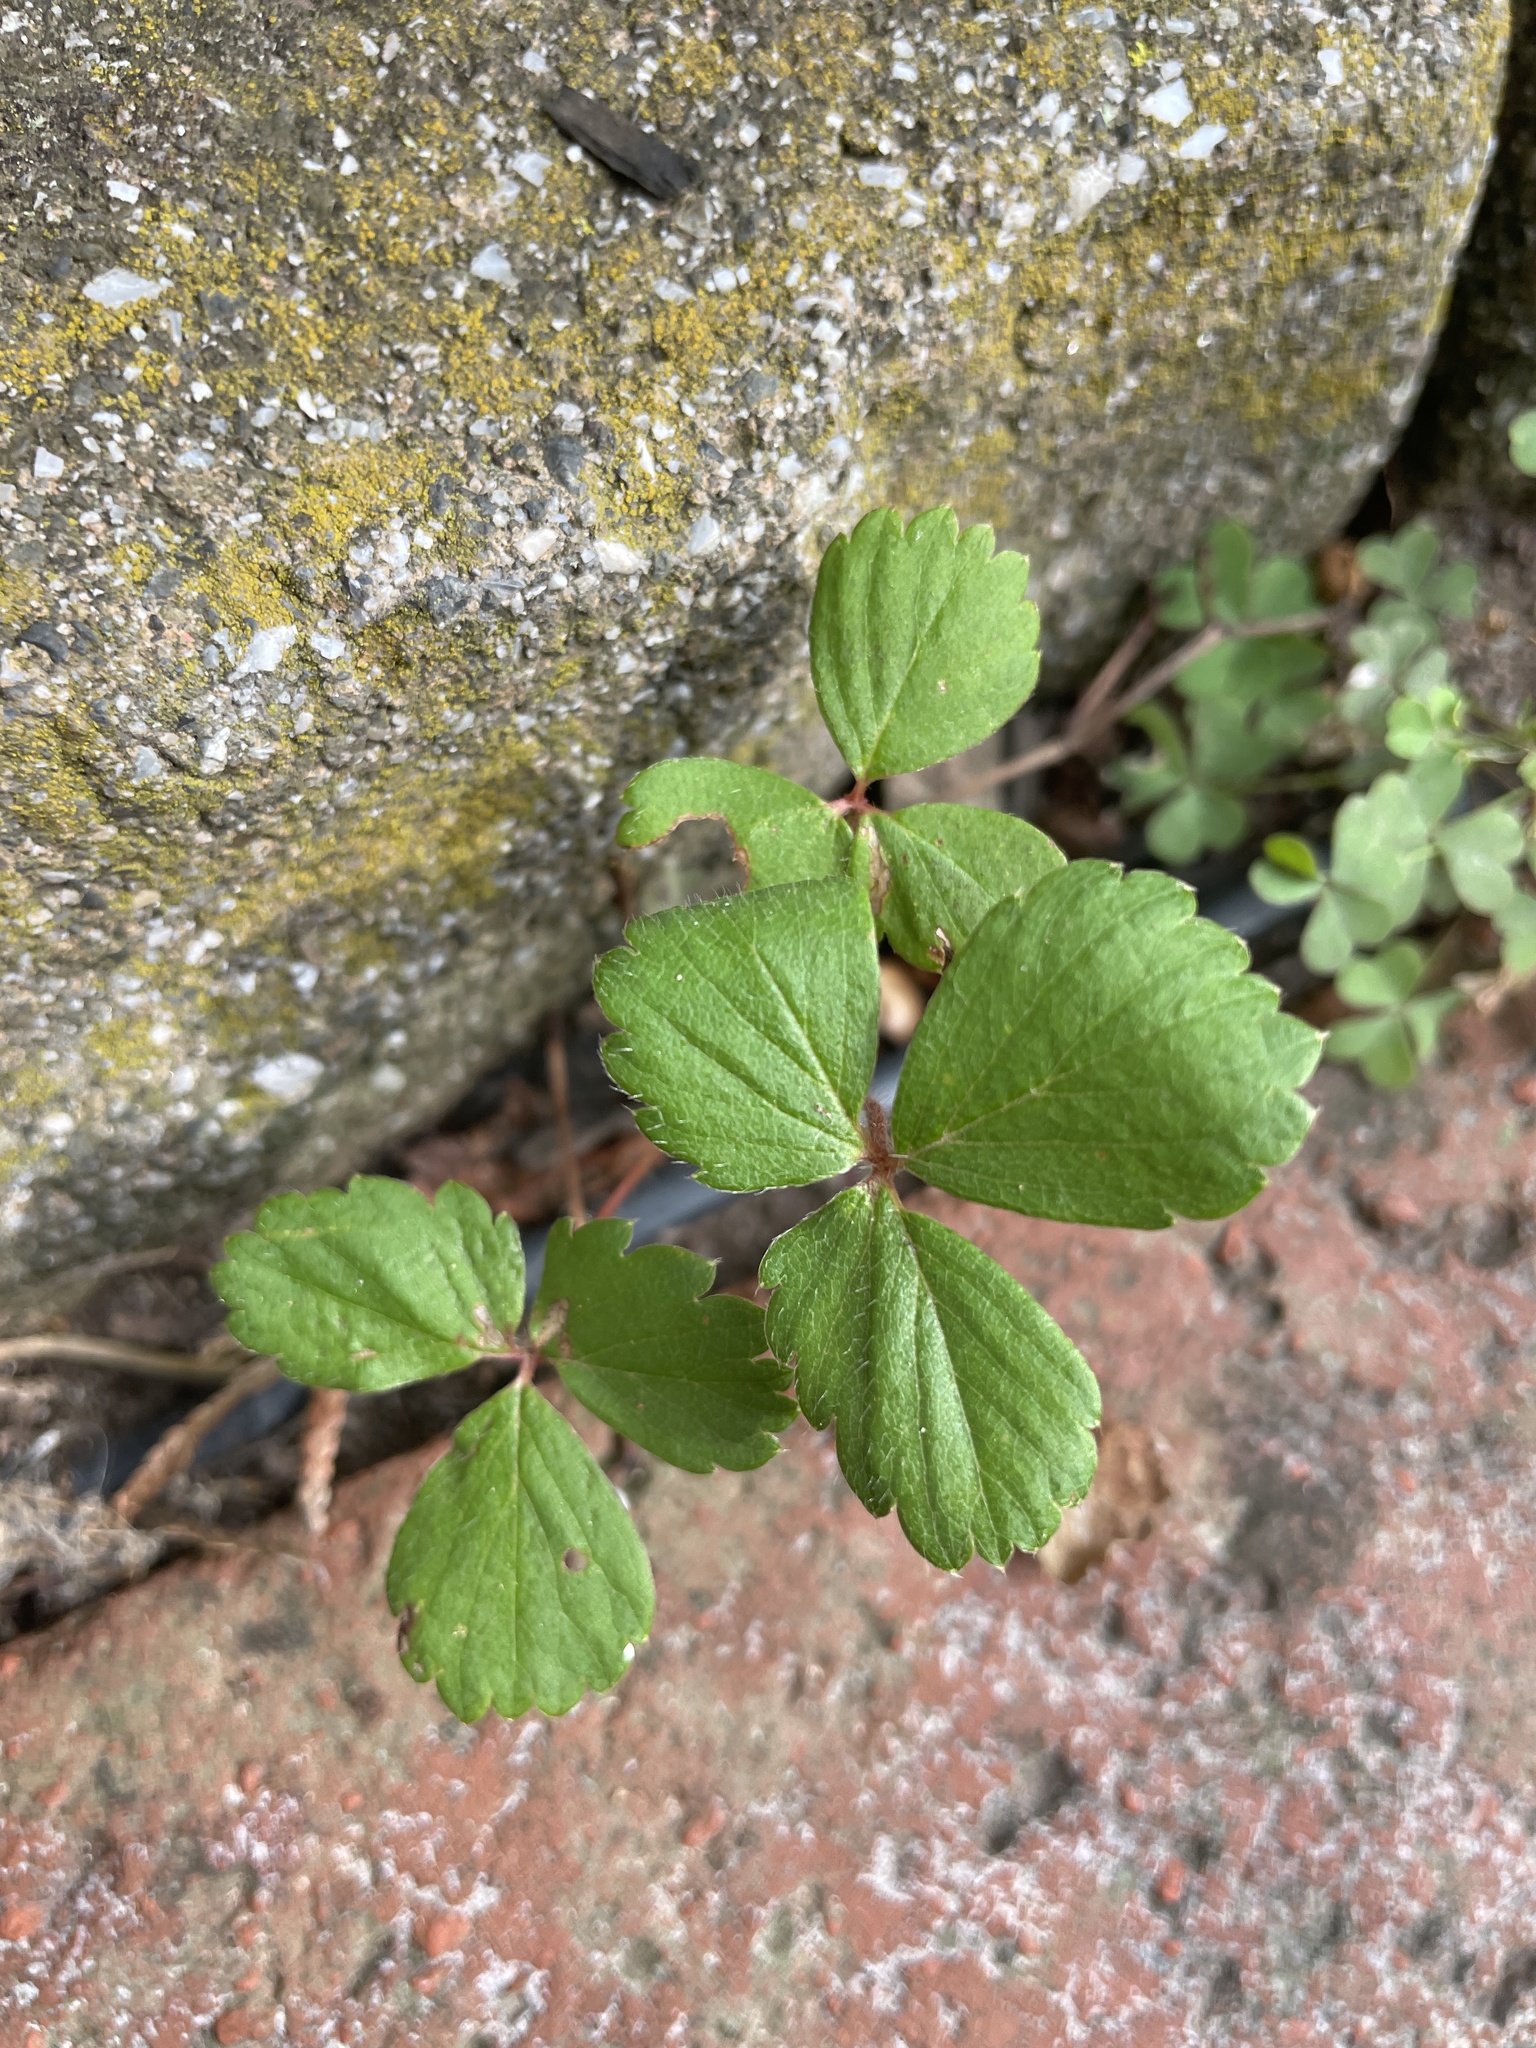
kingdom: Plantae
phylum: Tracheophyta
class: Magnoliopsida
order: Rosales
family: Rosaceae
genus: Potentilla
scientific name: Potentilla indica
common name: Yellow-flowered strawberry
